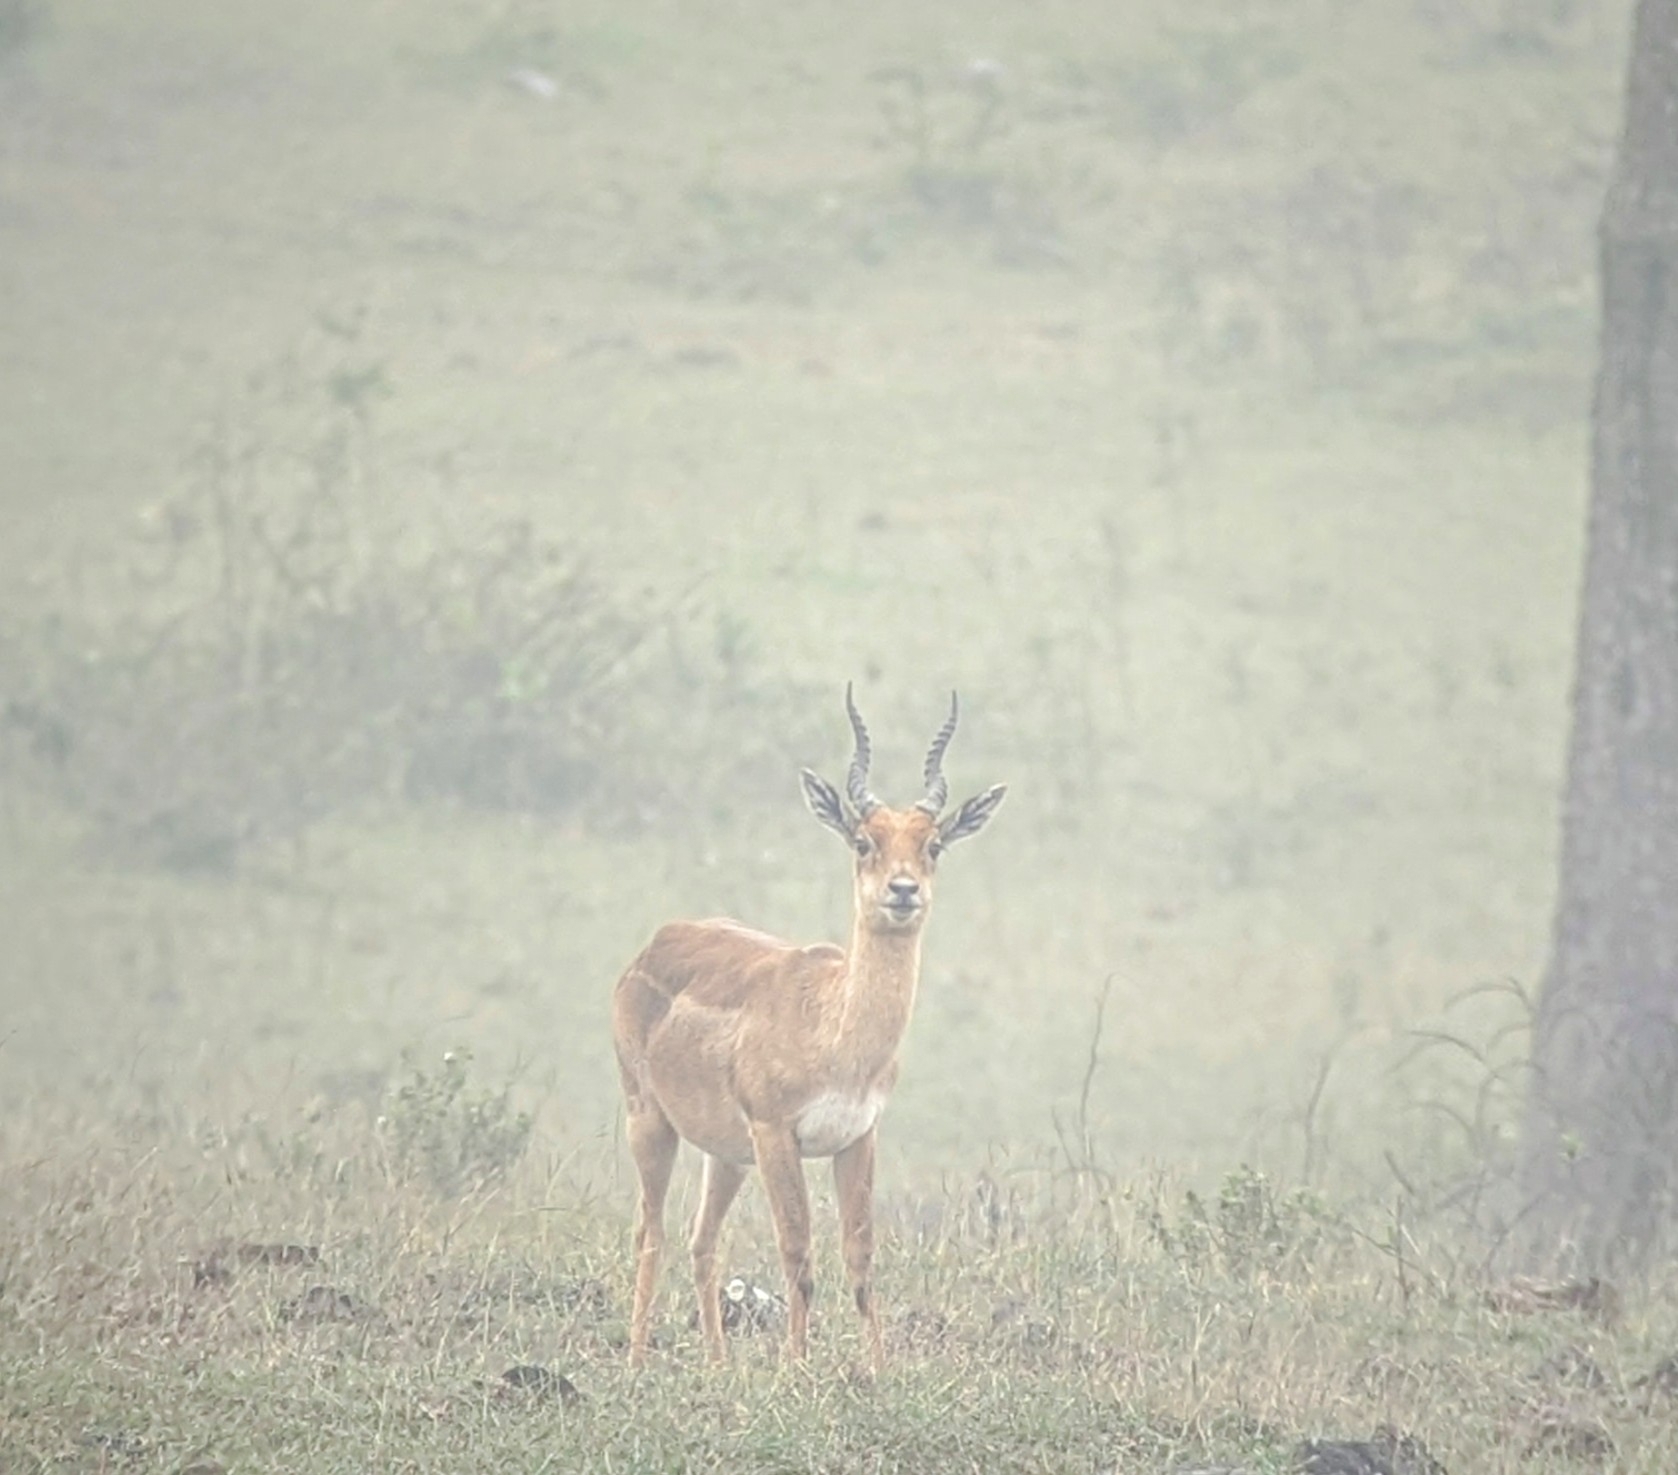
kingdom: Animalia
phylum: Chordata
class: Mammalia
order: Artiodactyla
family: Bovidae
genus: Antilope
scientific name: Antilope cervicapra
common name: Blackbuck
